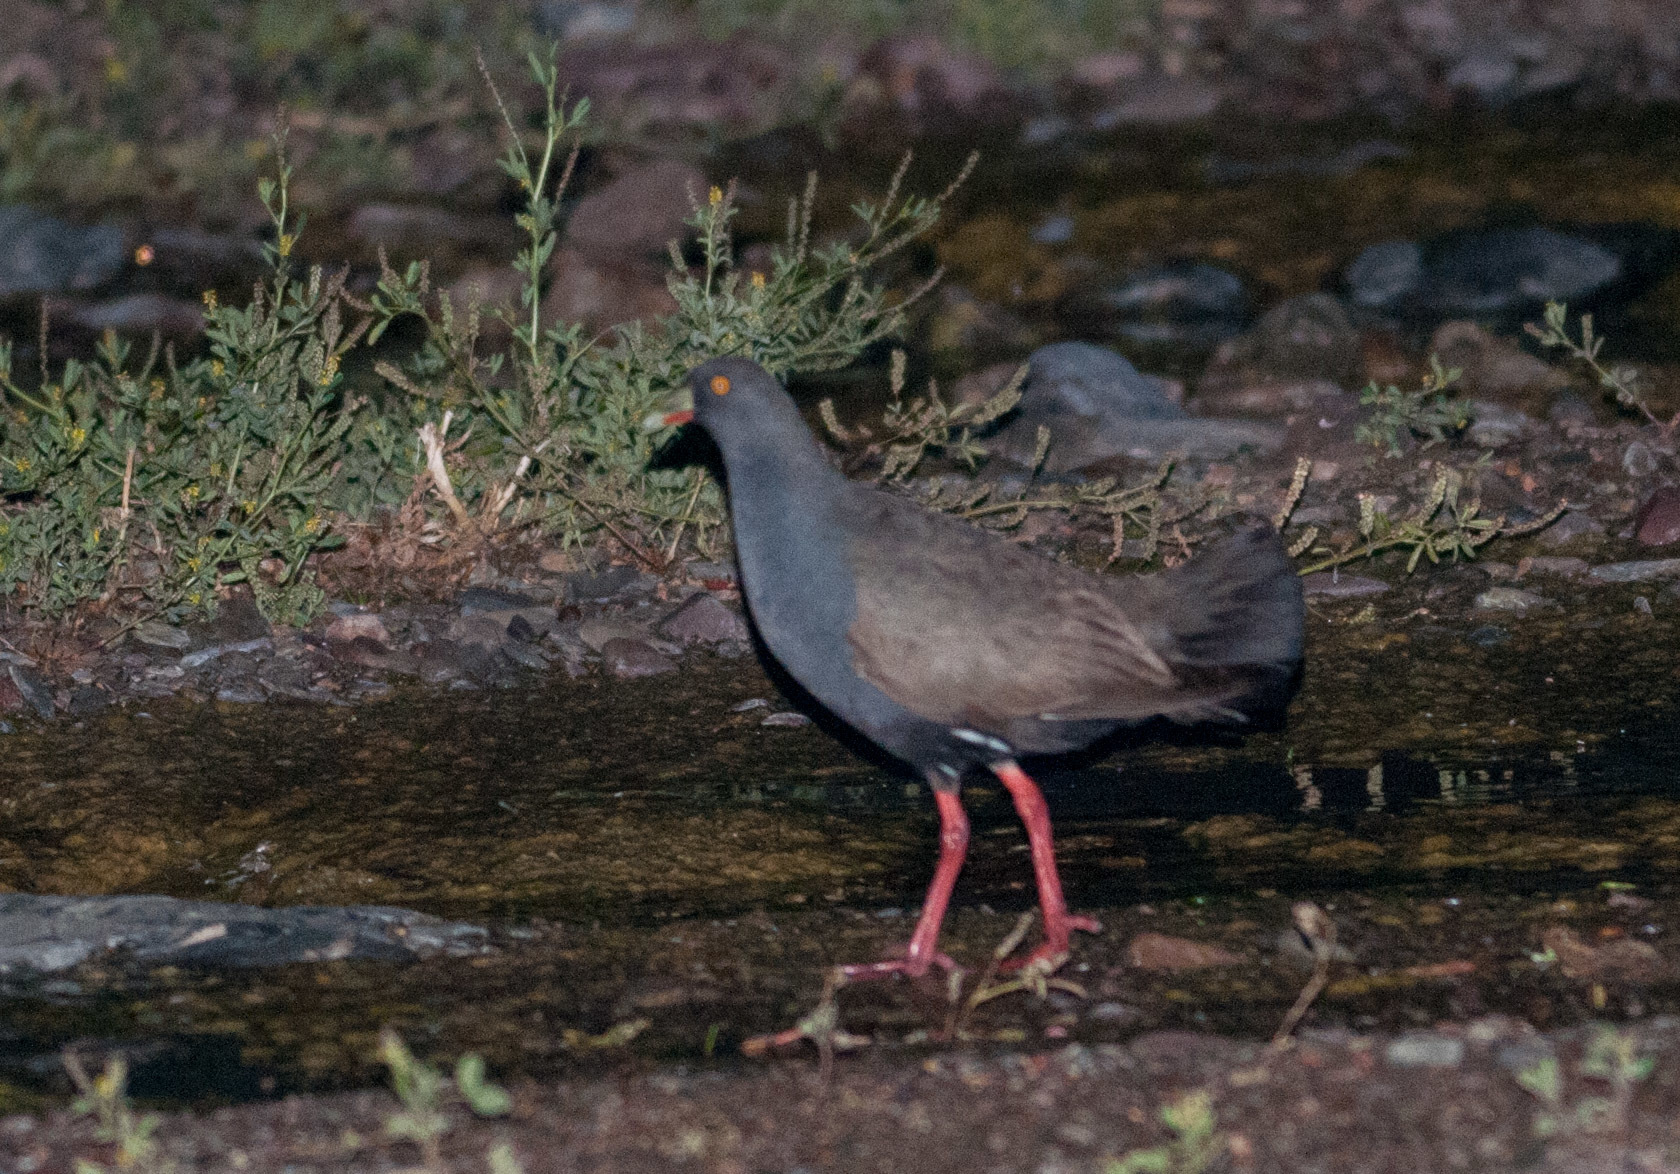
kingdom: Animalia
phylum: Chordata
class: Aves
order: Gruiformes
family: Rallidae
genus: Gallinula
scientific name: Gallinula ventralis
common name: Black-tailed nativehen
